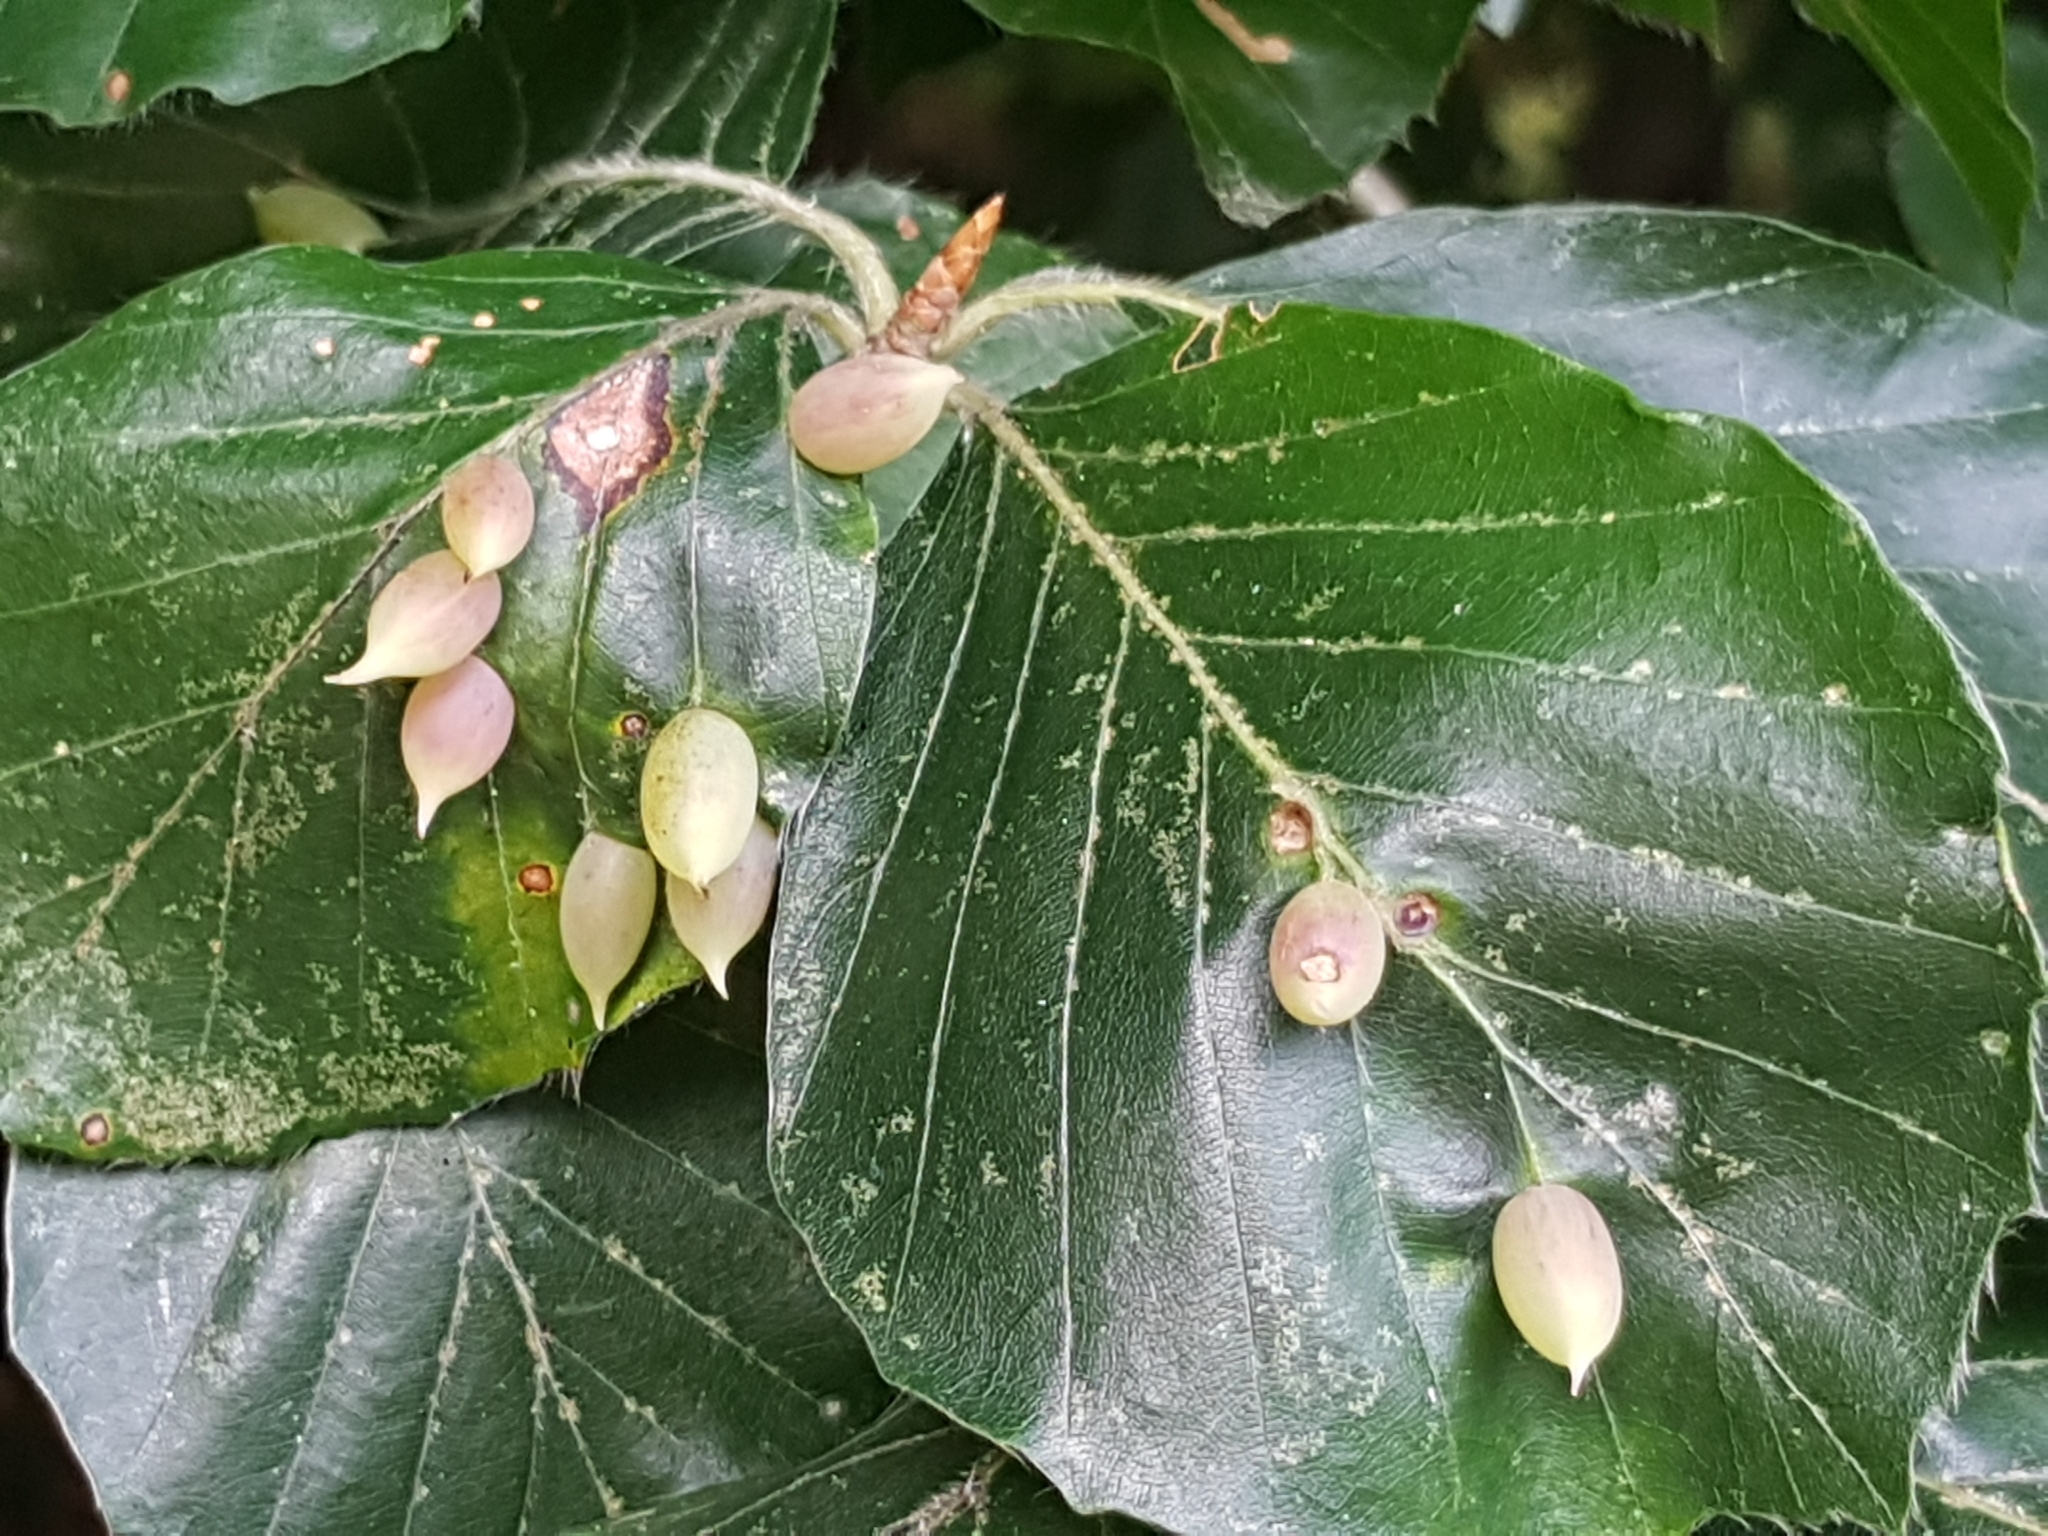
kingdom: Animalia
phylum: Arthropoda
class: Insecta
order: Diptera
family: Cecidomyiidae
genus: Mikiola
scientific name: Mikiola fagi
